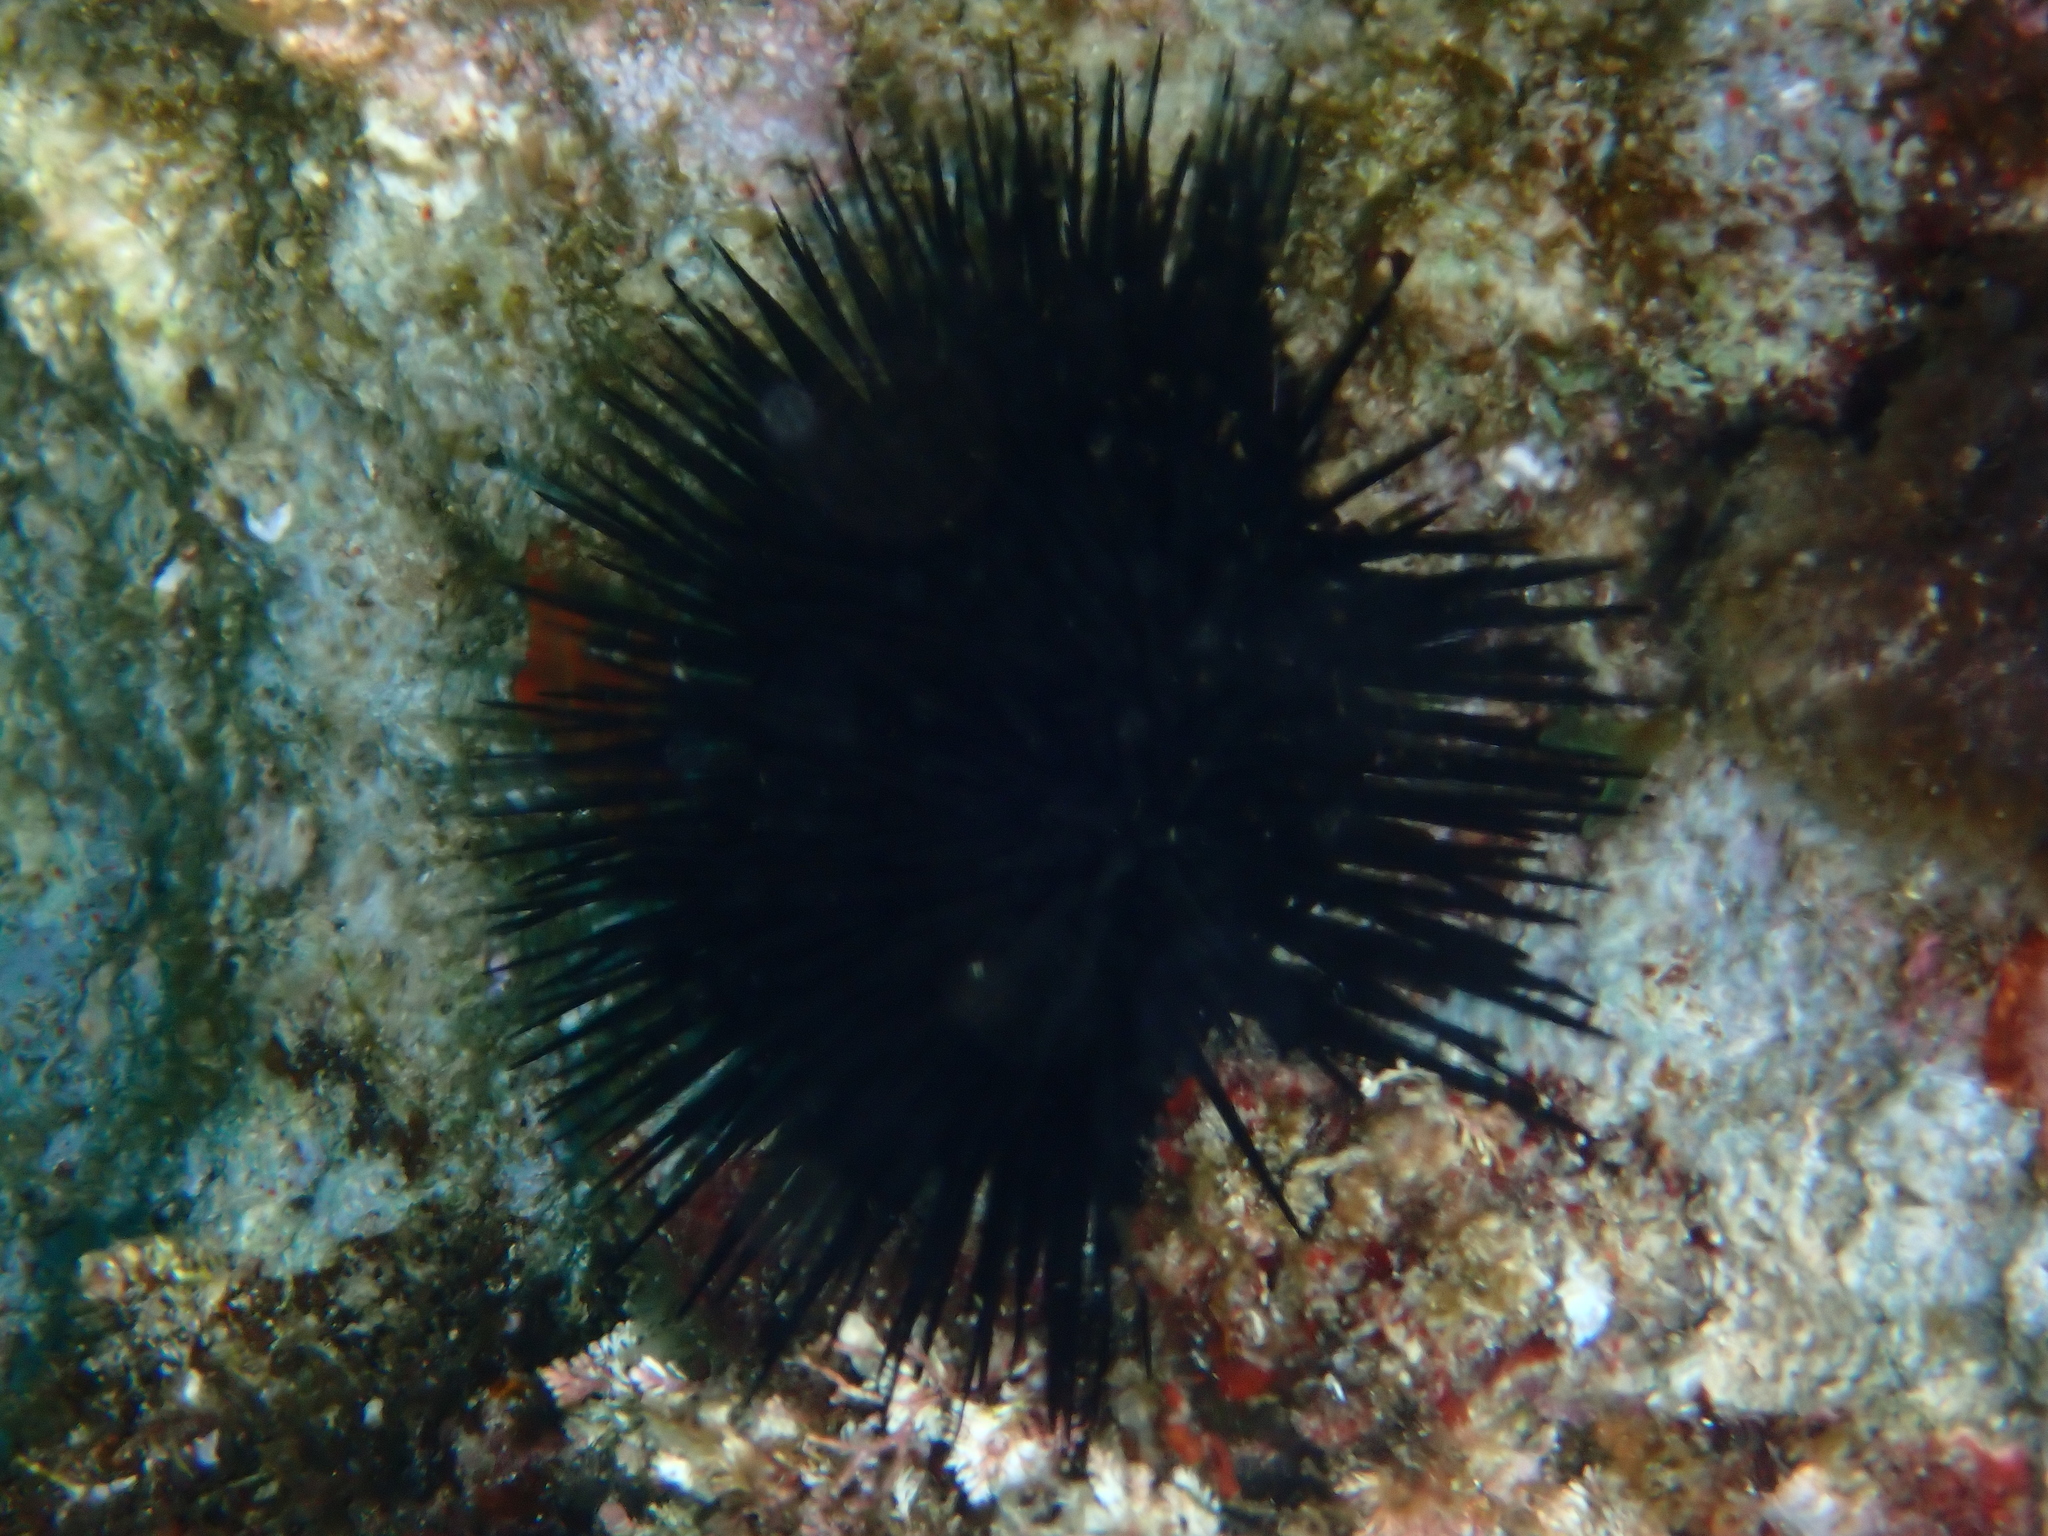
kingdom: Animalia
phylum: Echinodermata
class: Echinoidea
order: Arbacioida
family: Arbaciidae
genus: Arbacia
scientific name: Arbacia lixula
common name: Black sea urchin
